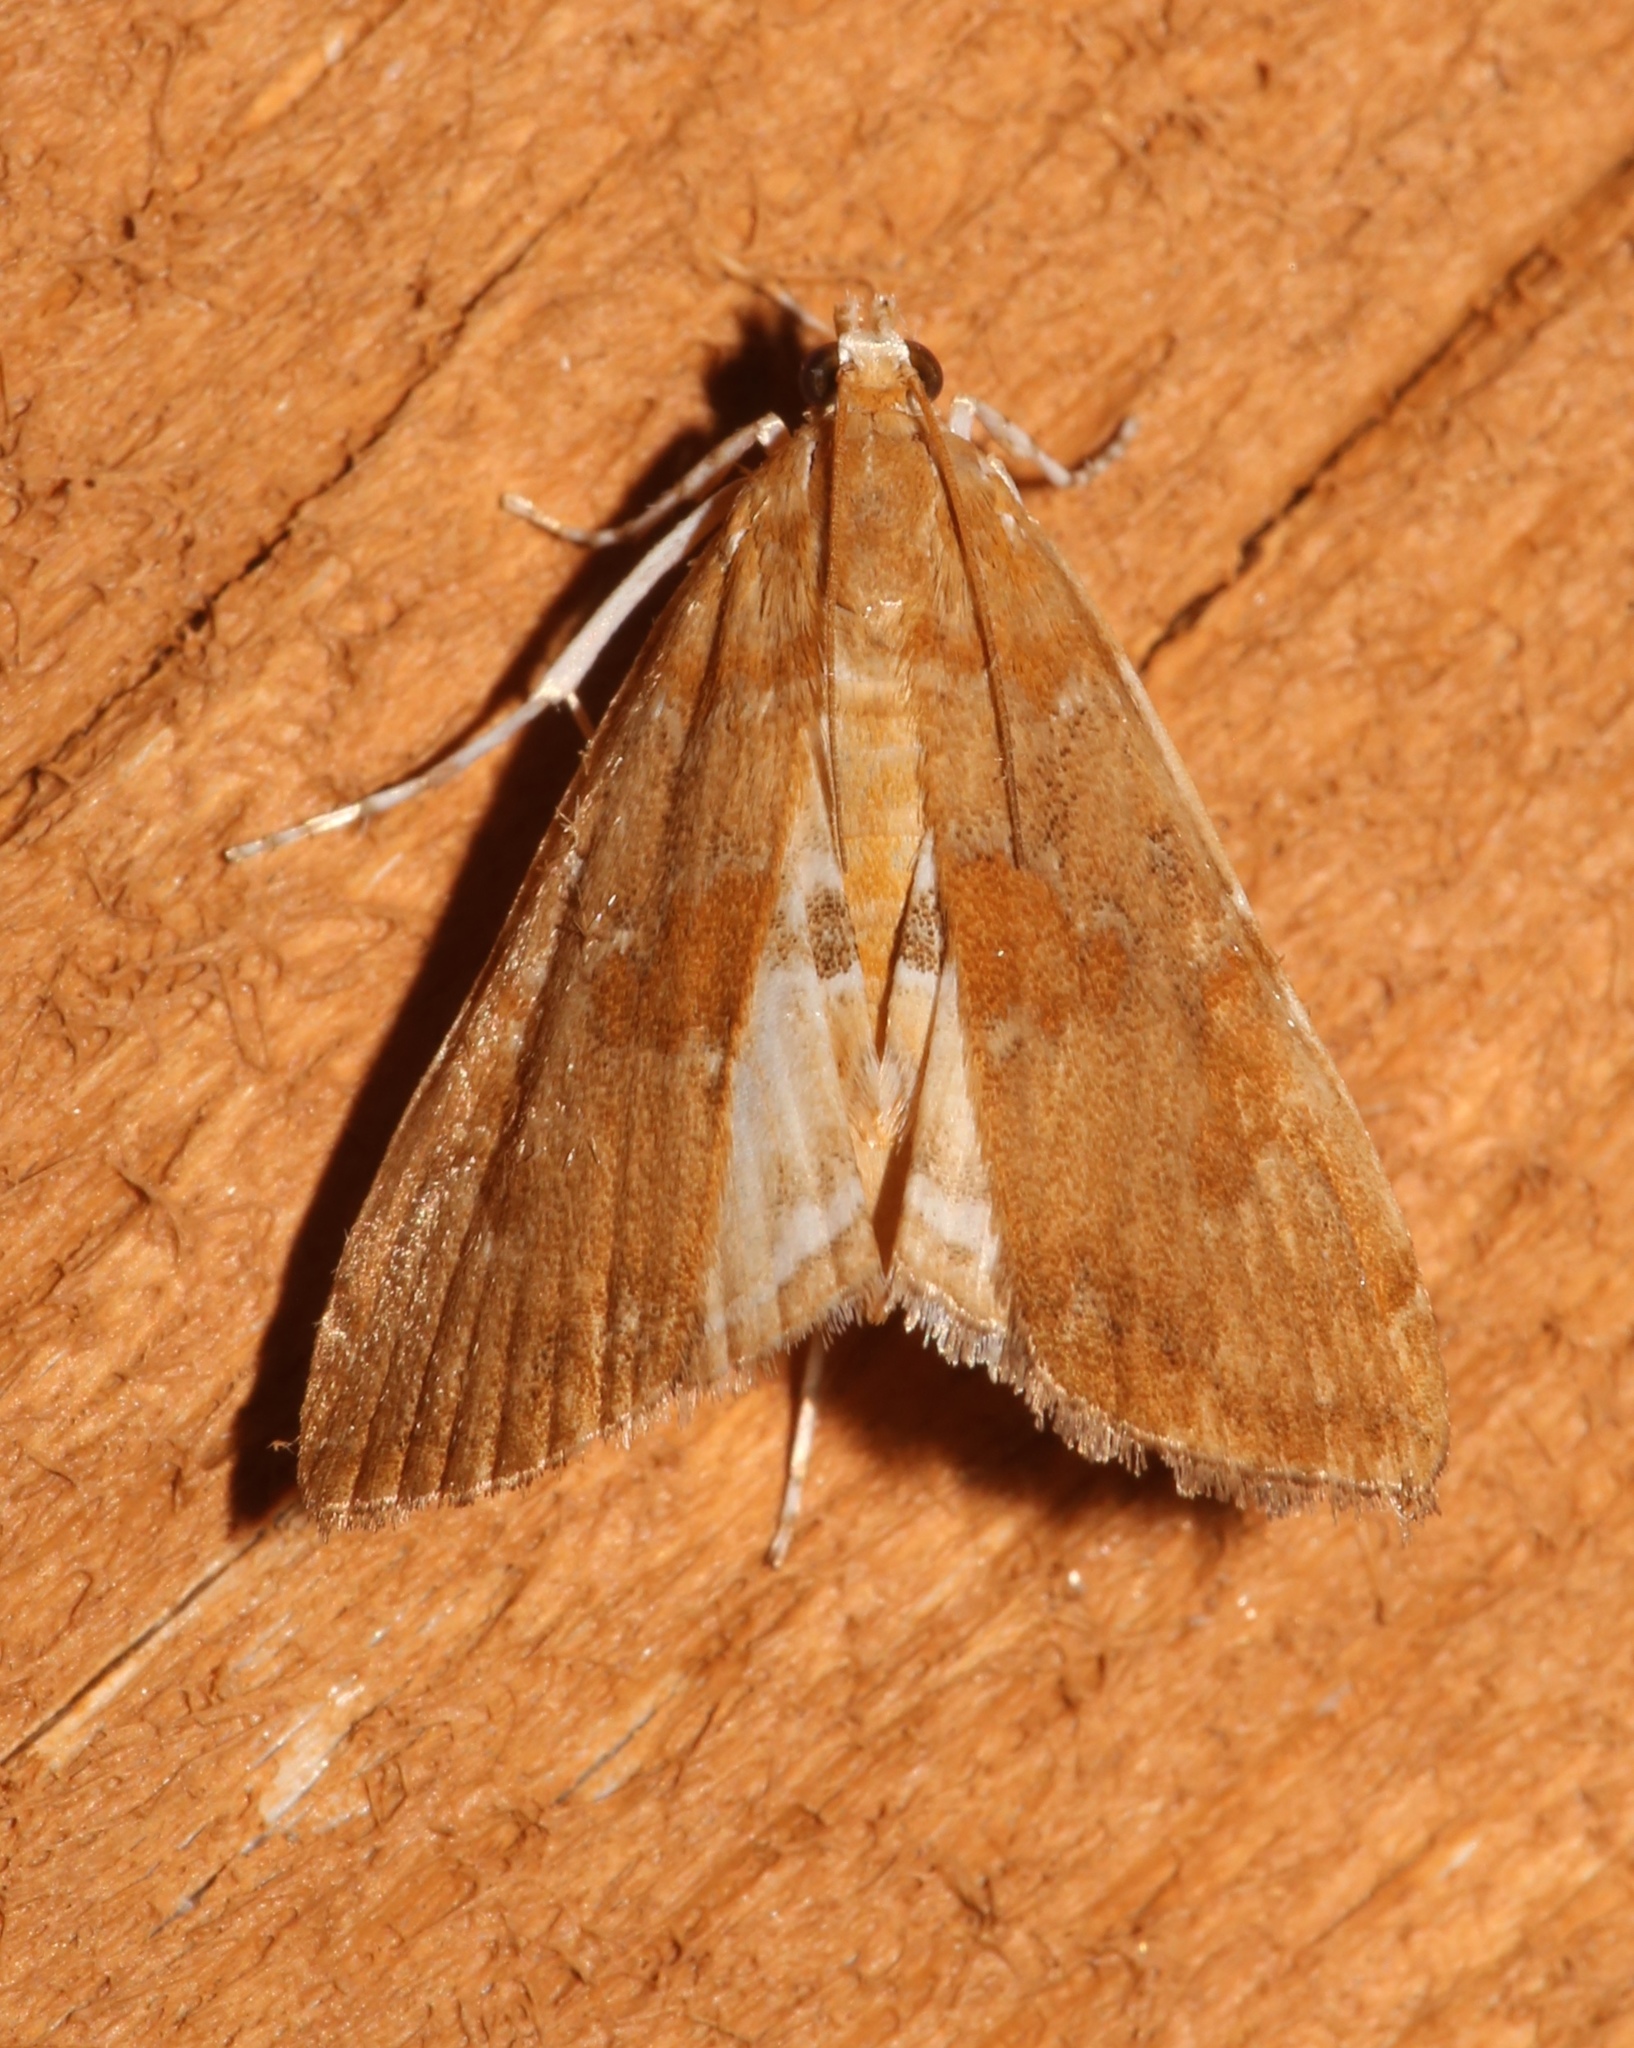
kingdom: Animalia
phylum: Arthropoda
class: Insecta
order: Lepidoptera
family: Crambidae
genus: Elophila
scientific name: Elophila gyralis
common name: Waterlily borer moth
